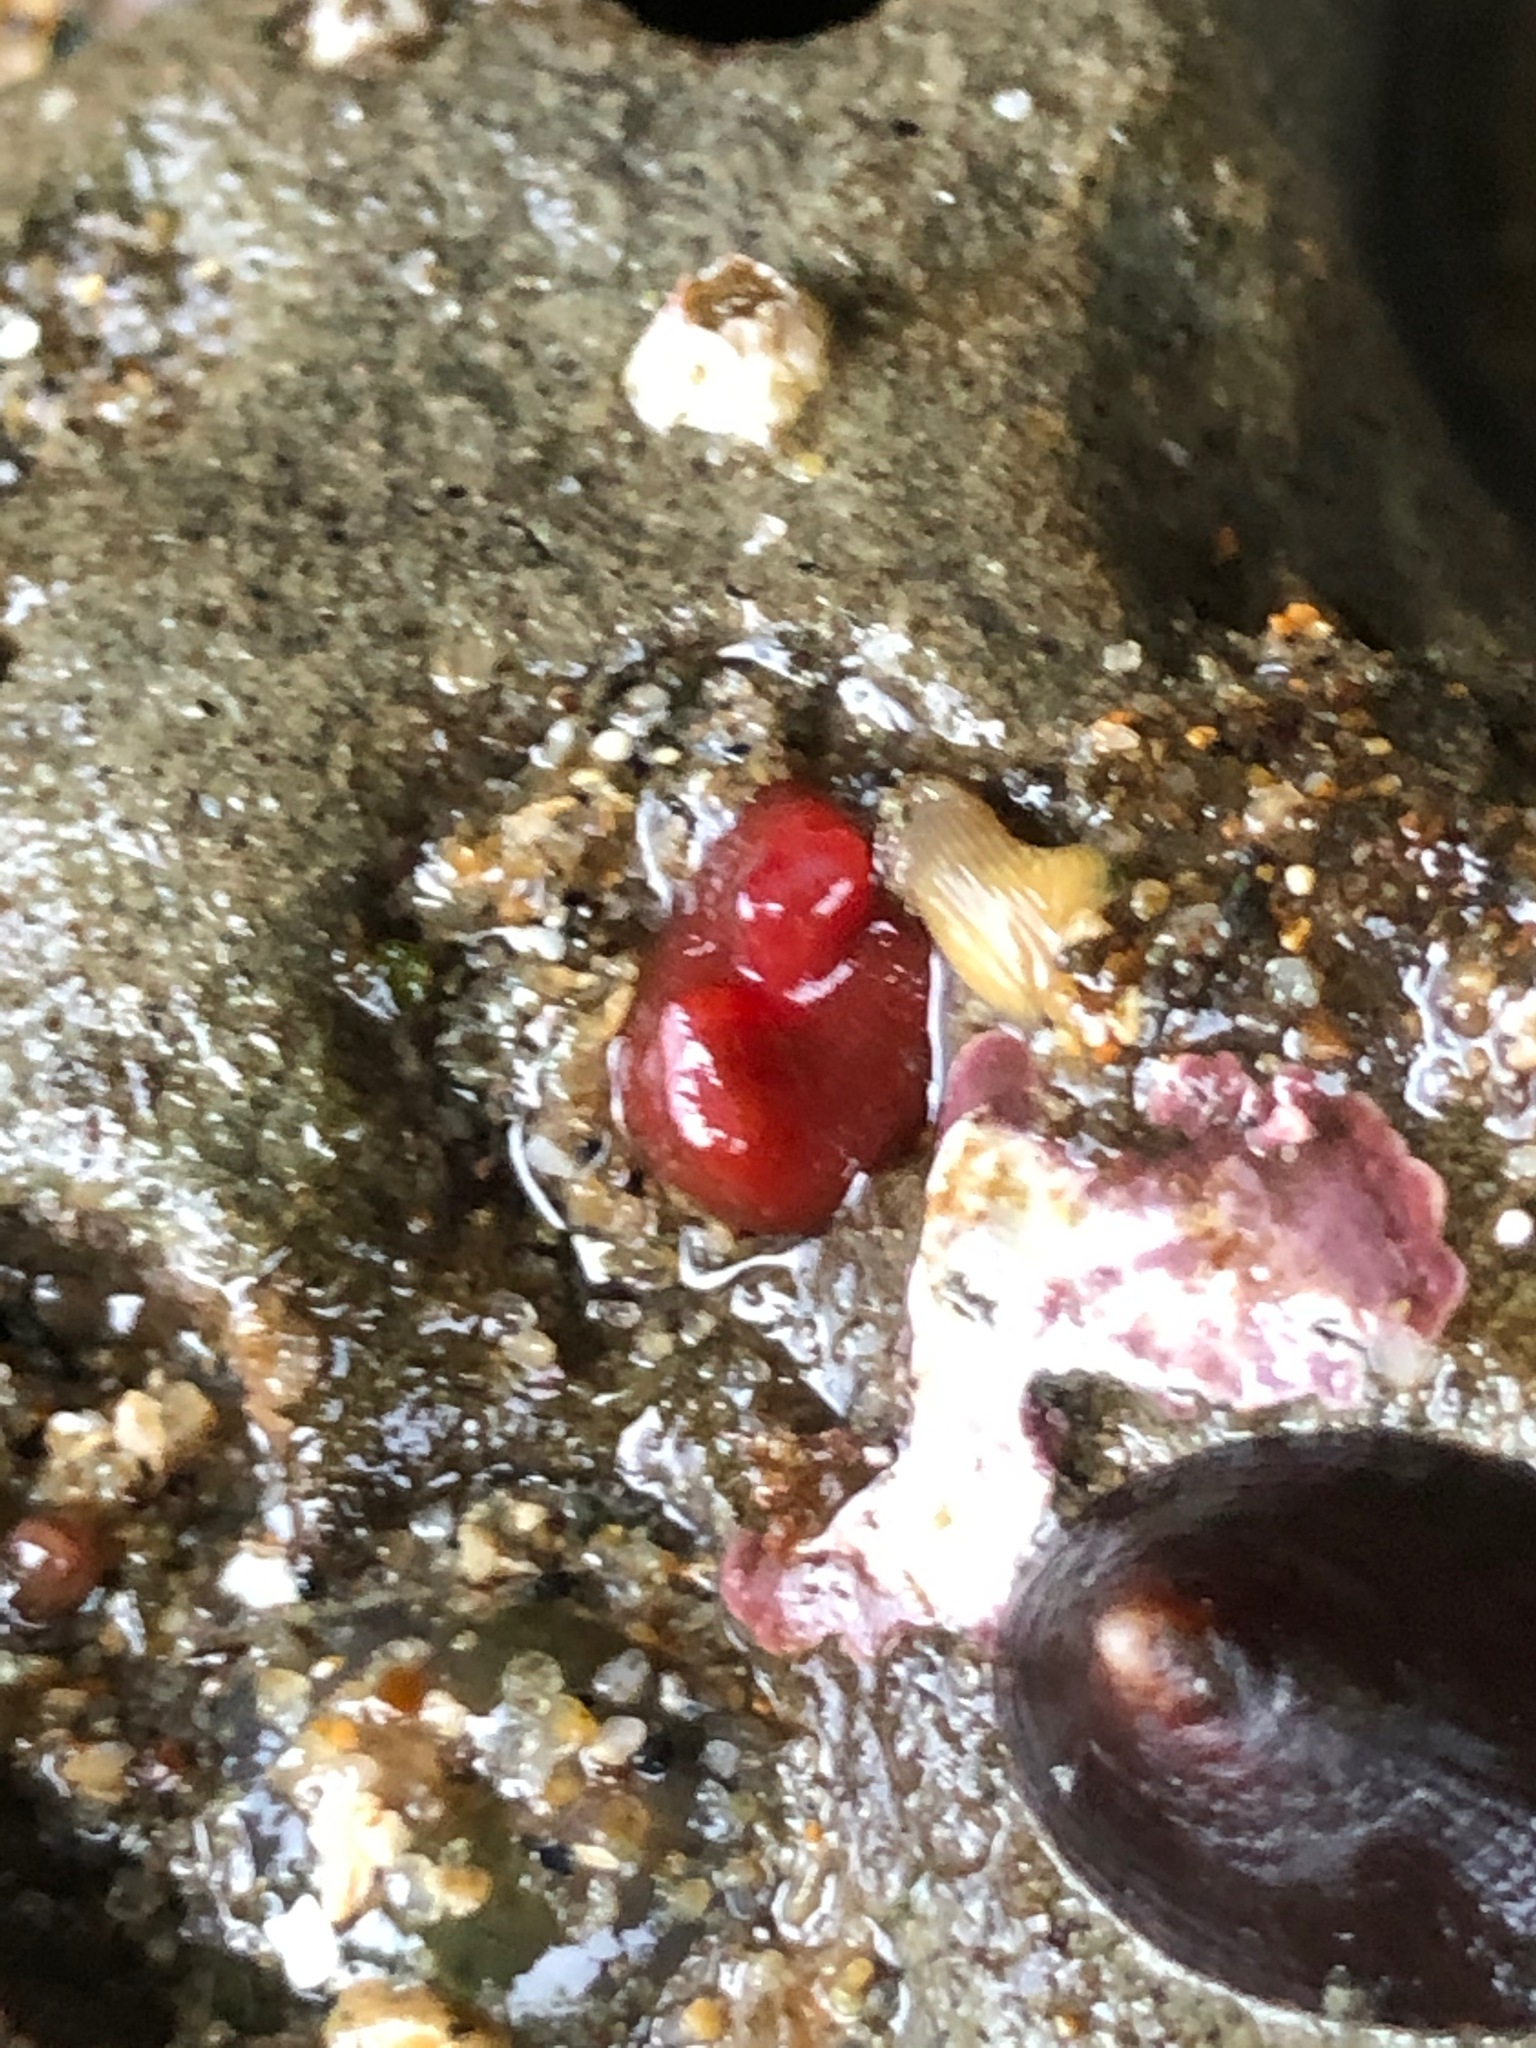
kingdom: Animalia
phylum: Mollusca
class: Bivalvia
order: Adapedonta
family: Hiatellidae
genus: Hiatella
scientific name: Hiatella arctica
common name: Arctic hiatella
